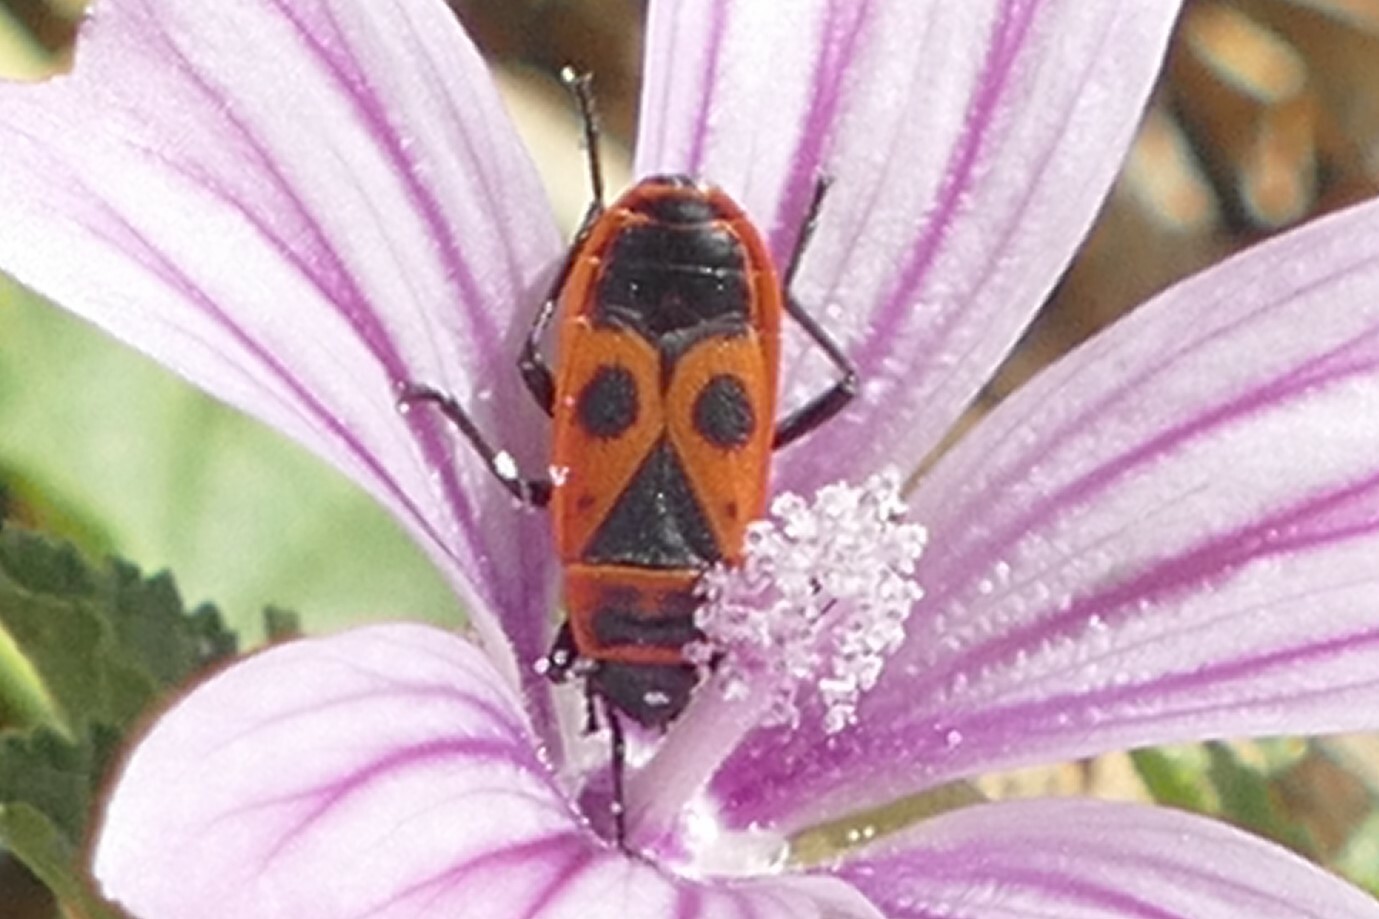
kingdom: Animalia
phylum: Arthropoda
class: Insecta
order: Hemiptera
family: Pyrrhocoridae
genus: Pyrrhocoris
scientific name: Pyrrhocoris apterus
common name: Firebug
